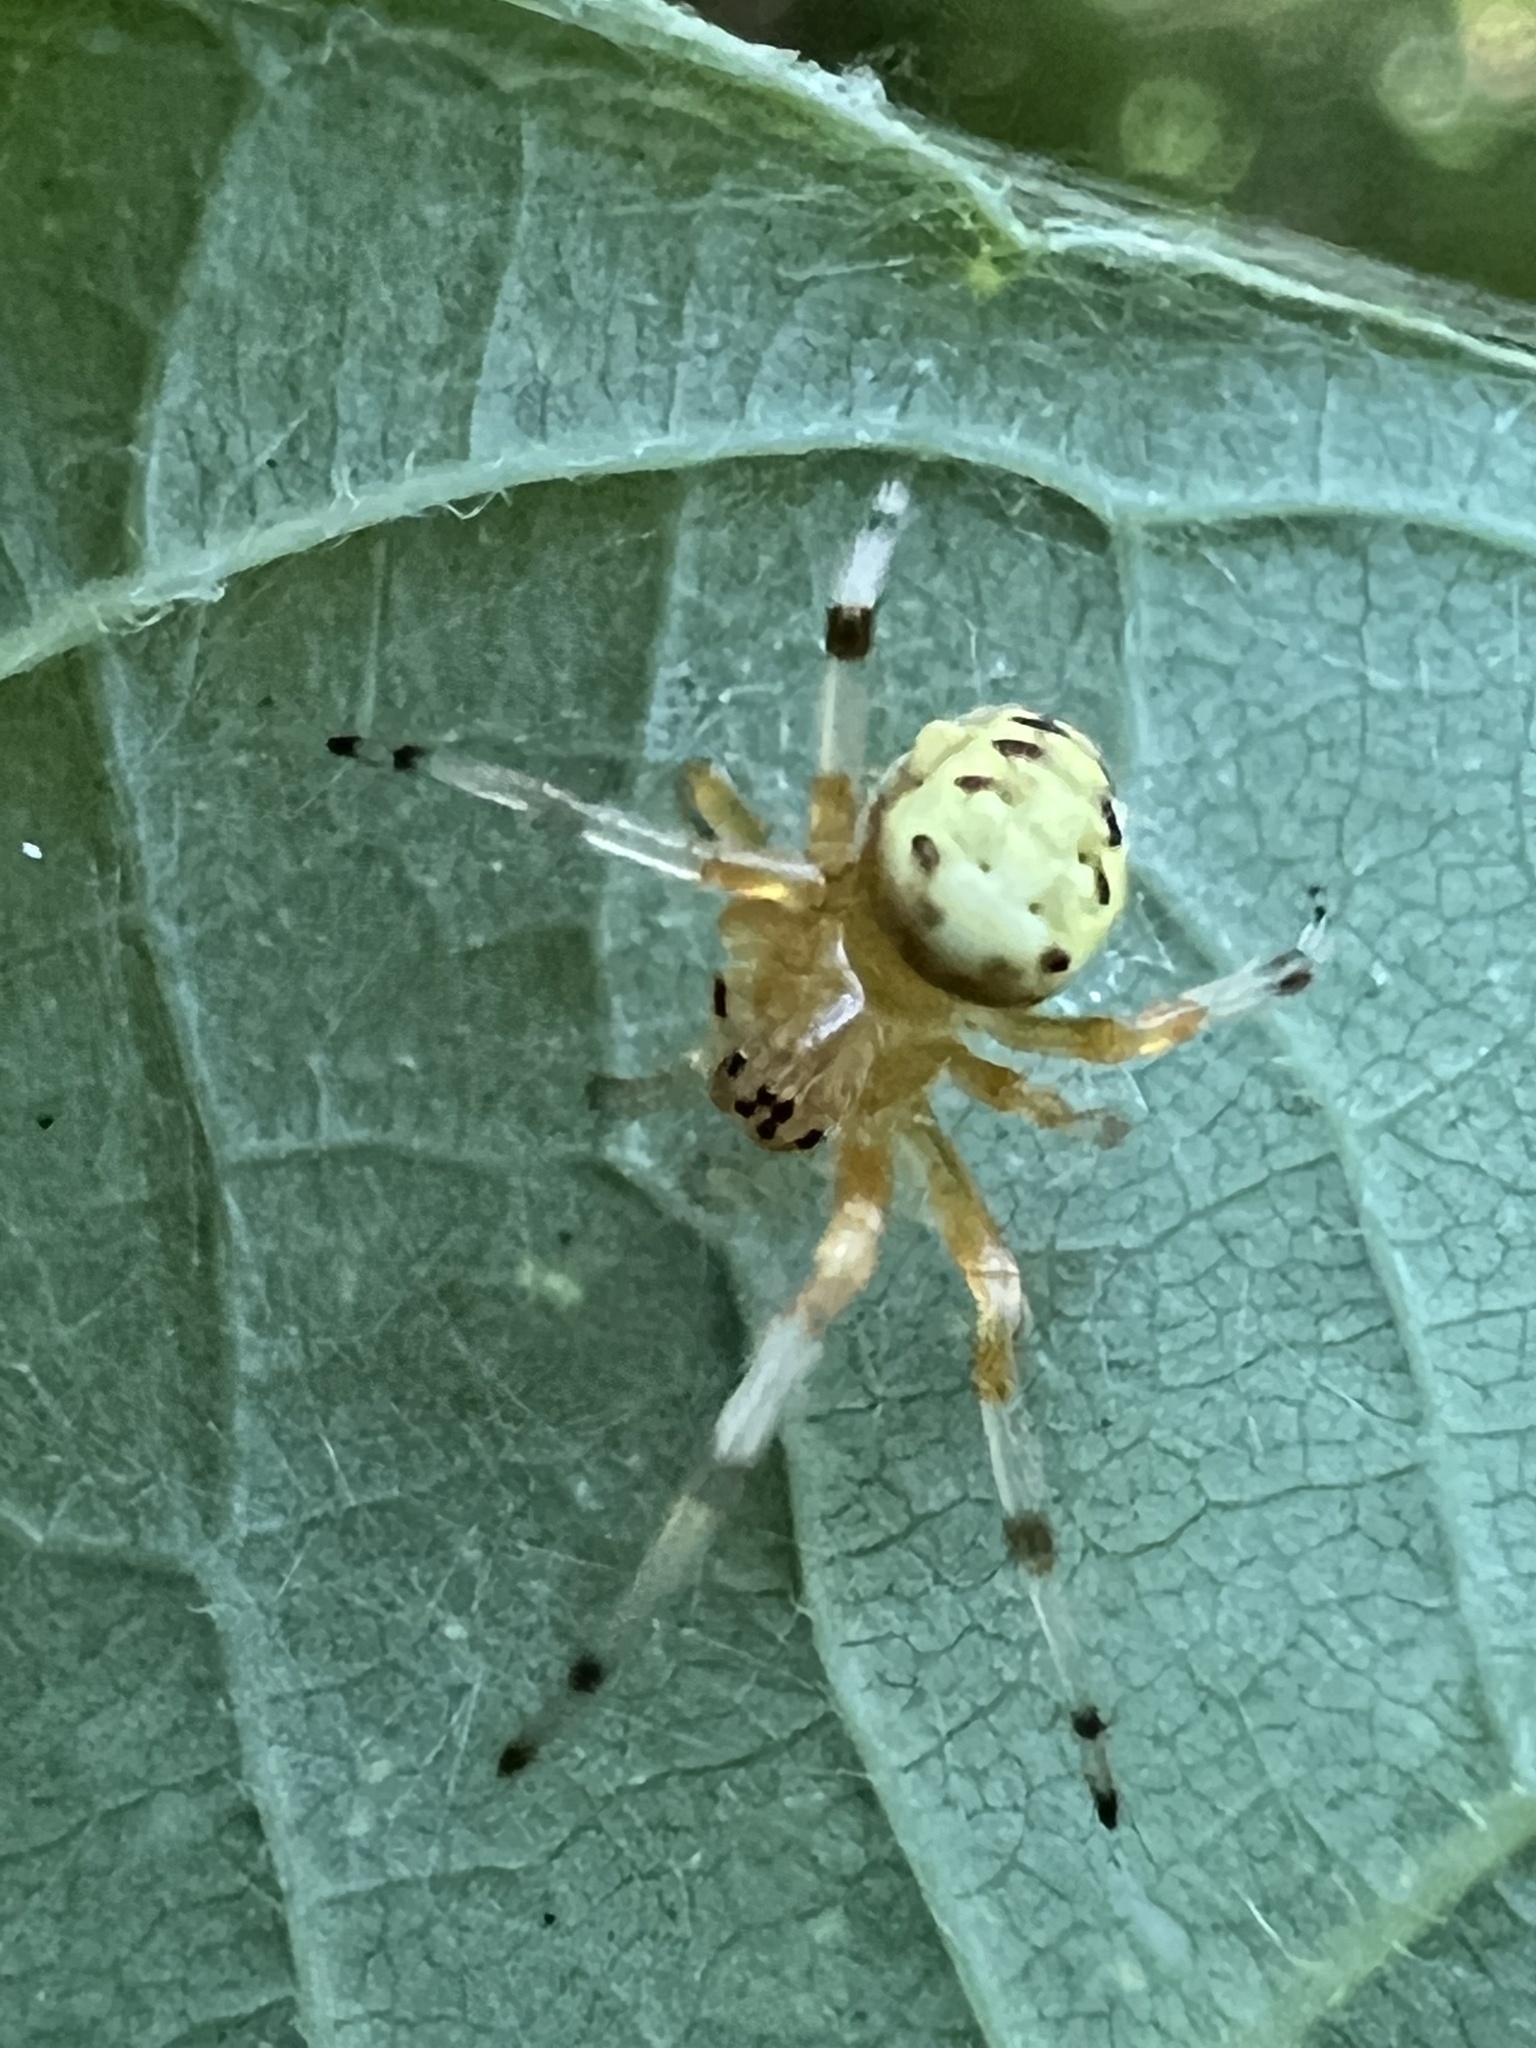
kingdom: Animalia
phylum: Arthropoda
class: Arachnida
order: Araneae
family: Araneidae
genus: Araneus
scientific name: Araneus marmoreus
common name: Marbled orbweaver
